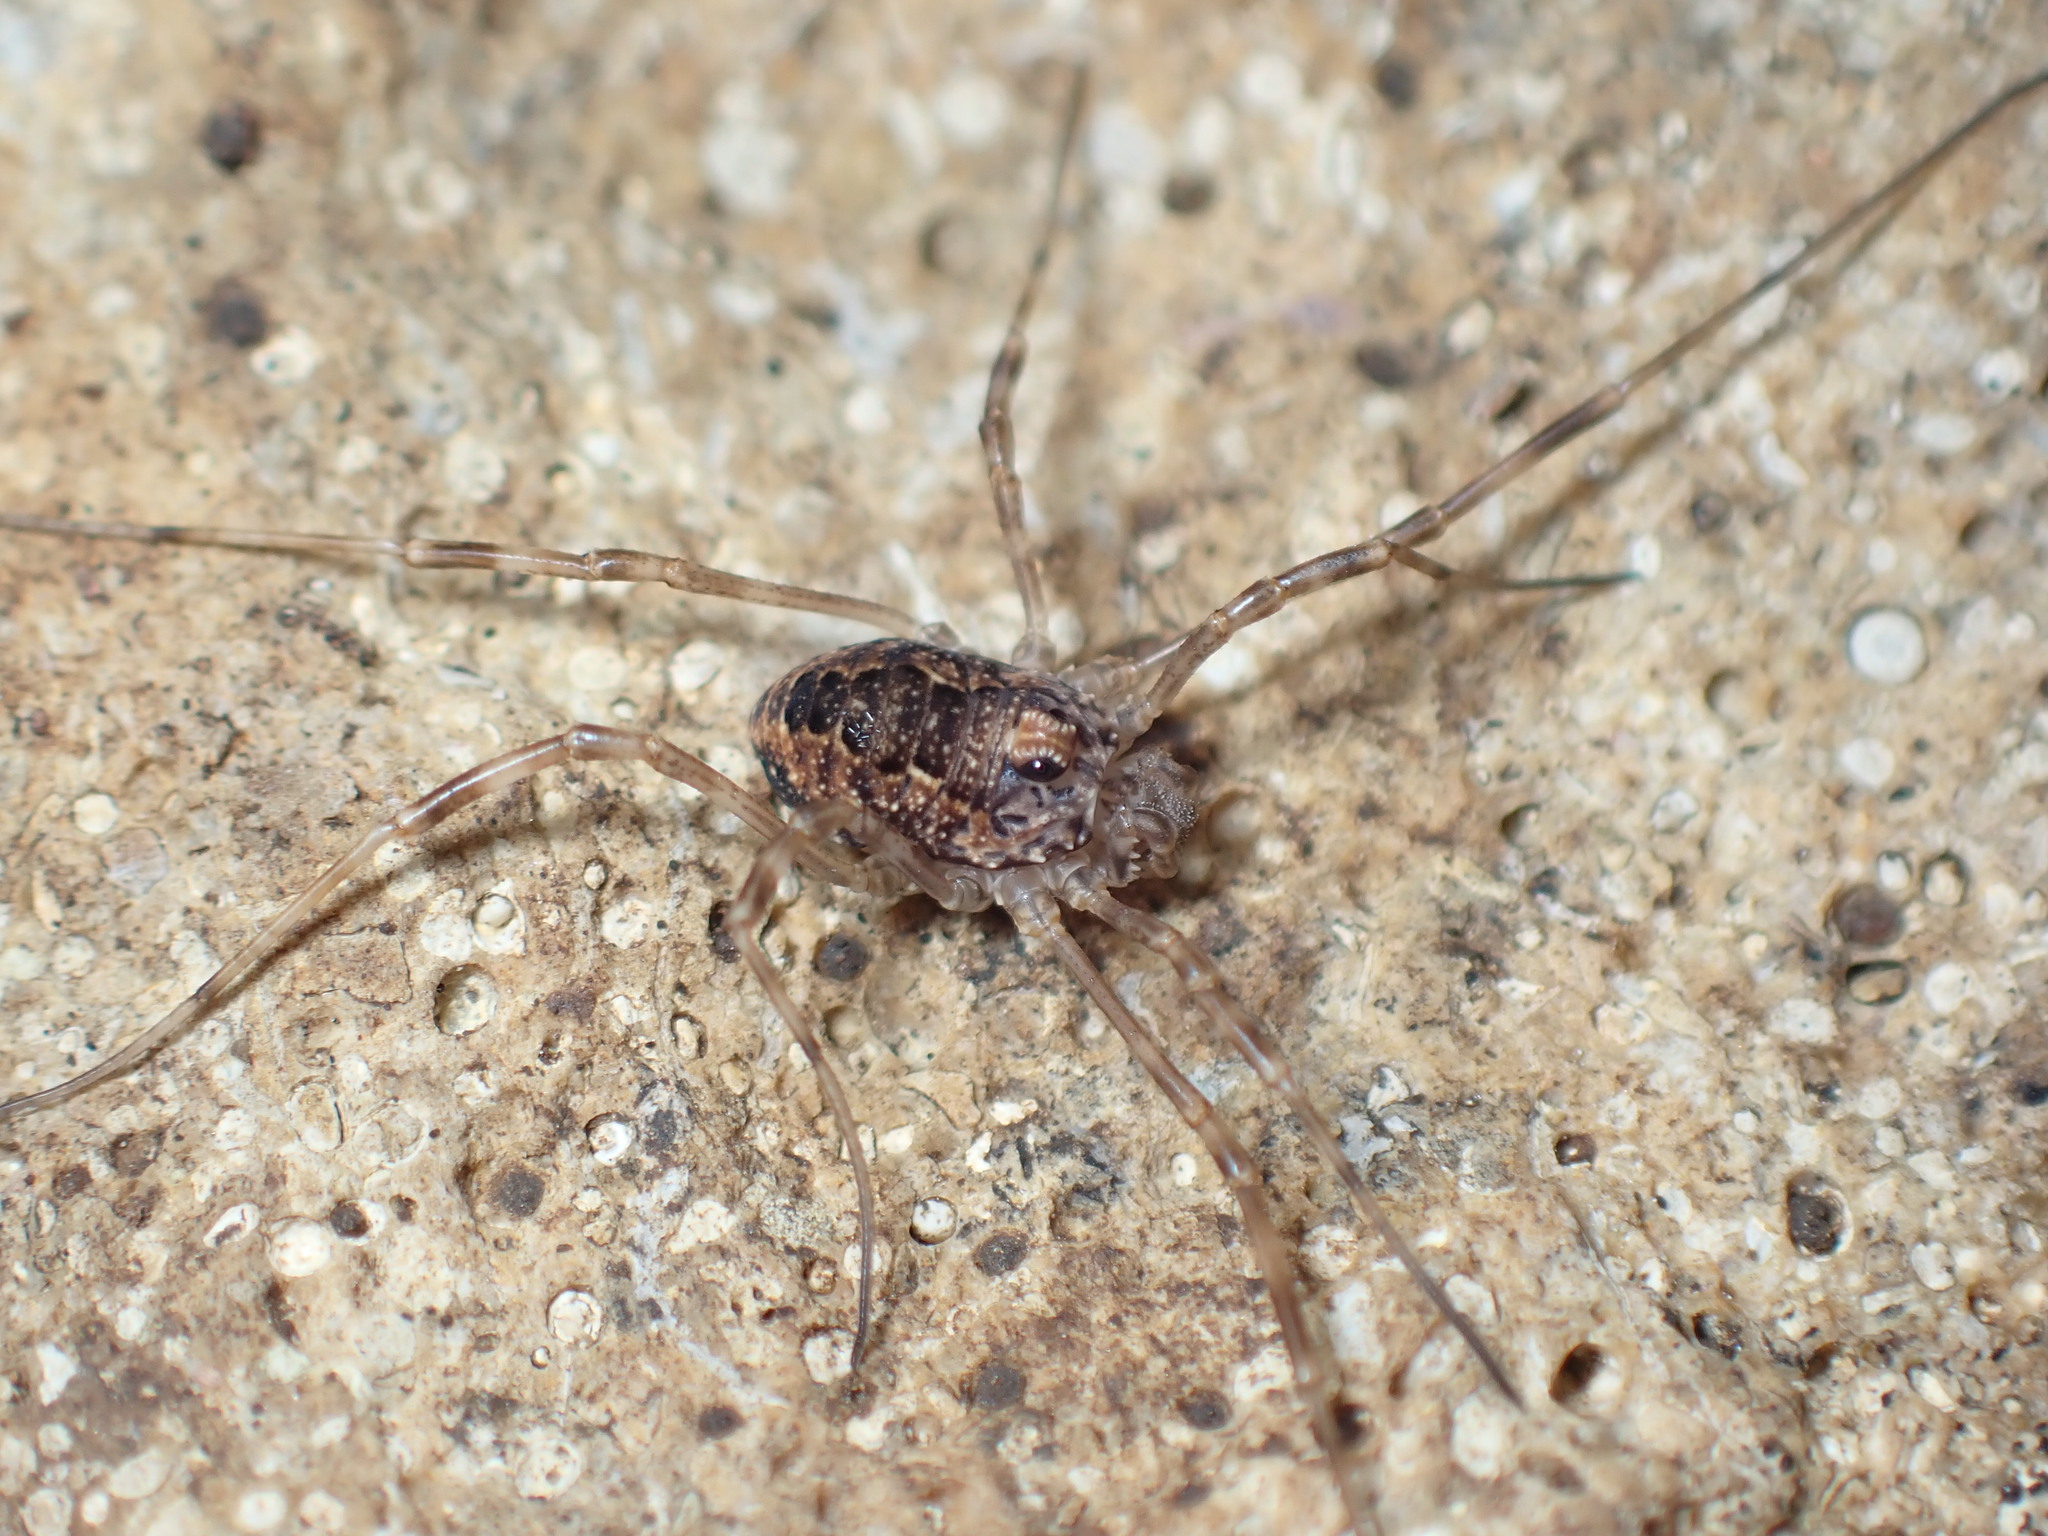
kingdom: Animalia
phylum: Arthropoda
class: Arachnida
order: Opiliones
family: Phalangiidae
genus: Rilaena
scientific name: Rilaena triangularis
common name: Spring harvestman
